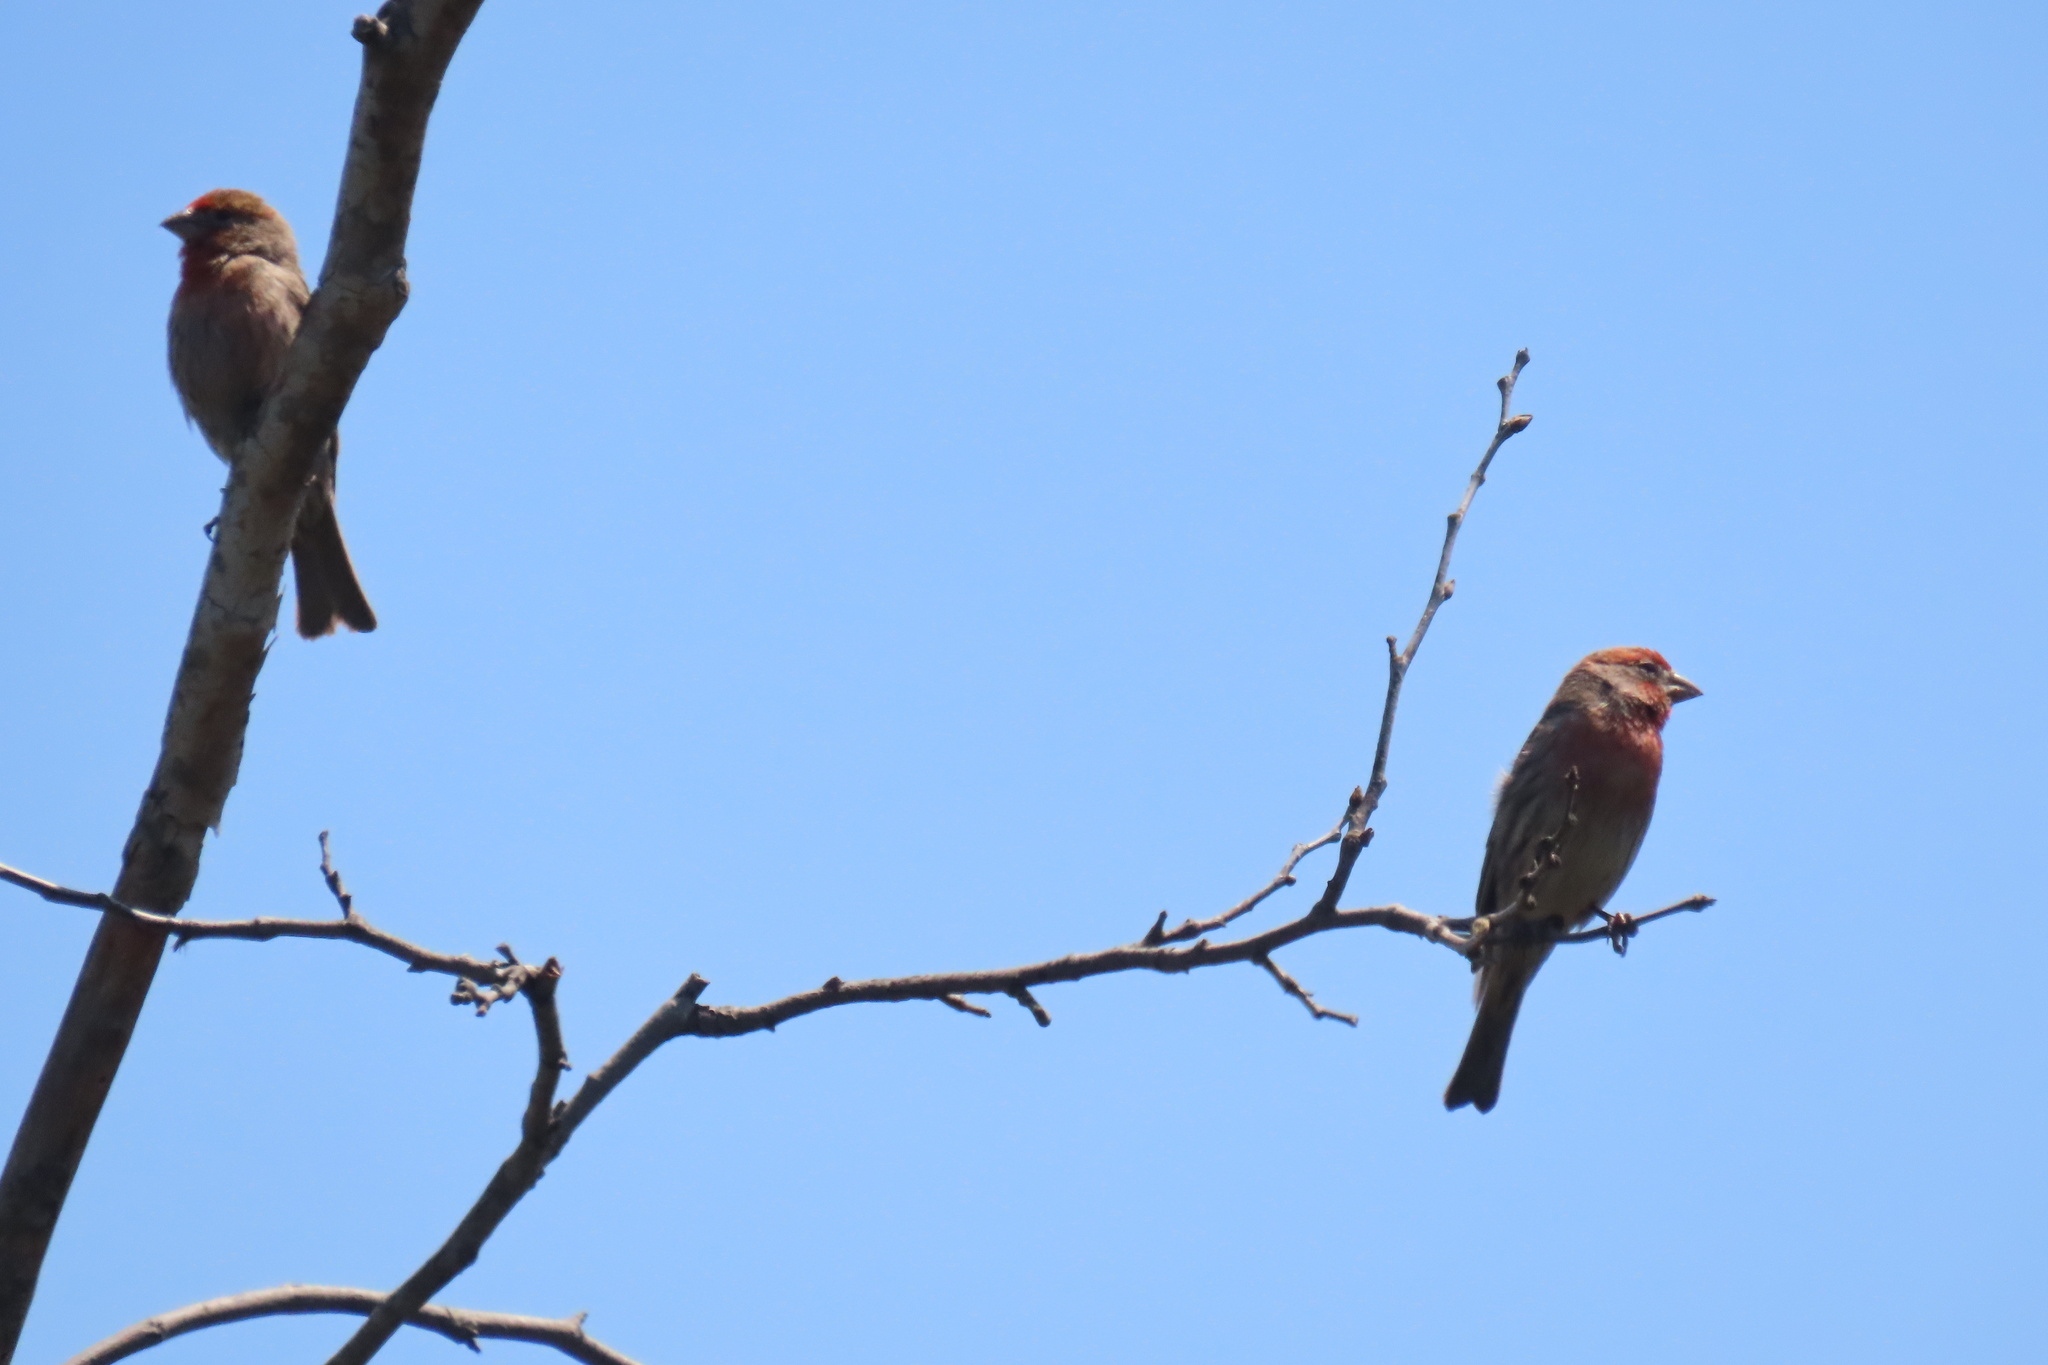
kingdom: Animalia
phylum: Chordata
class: Aves
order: Passeriformes
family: Fringillidae
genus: Haemorhous
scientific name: Haemorhous mexicanus
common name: House finch
